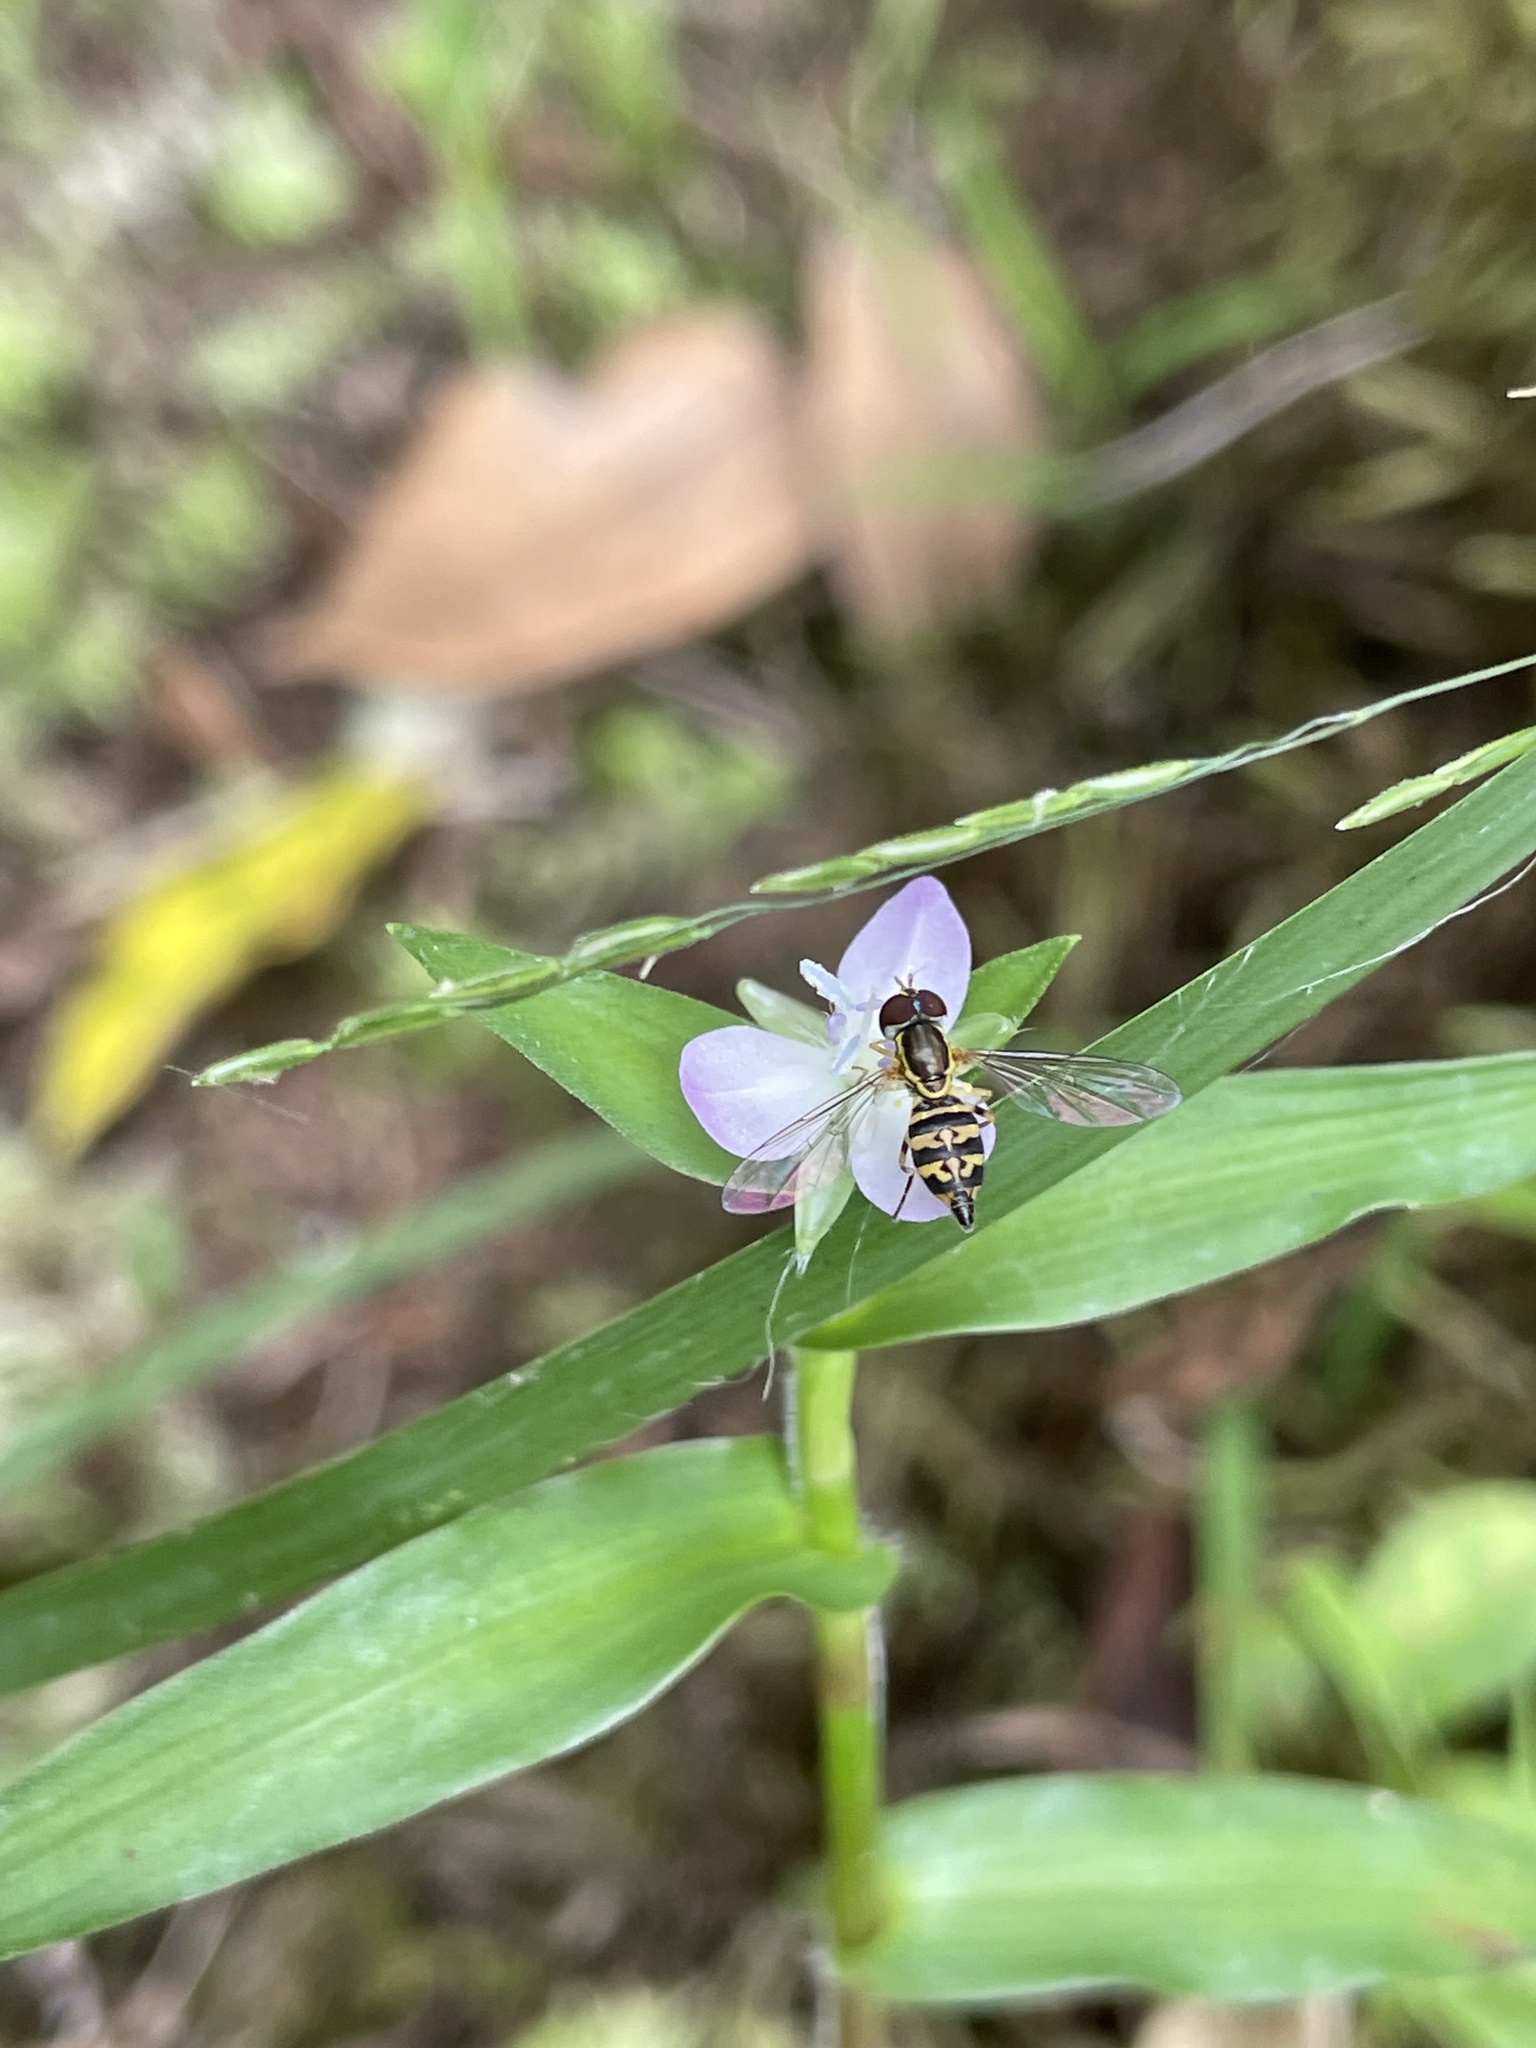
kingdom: Animalia
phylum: Arthropoda
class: Insecta
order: Diptera
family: Syrphidae
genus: Toxomerus
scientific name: Toxomerus geminatus
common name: Eastern calligrapher
